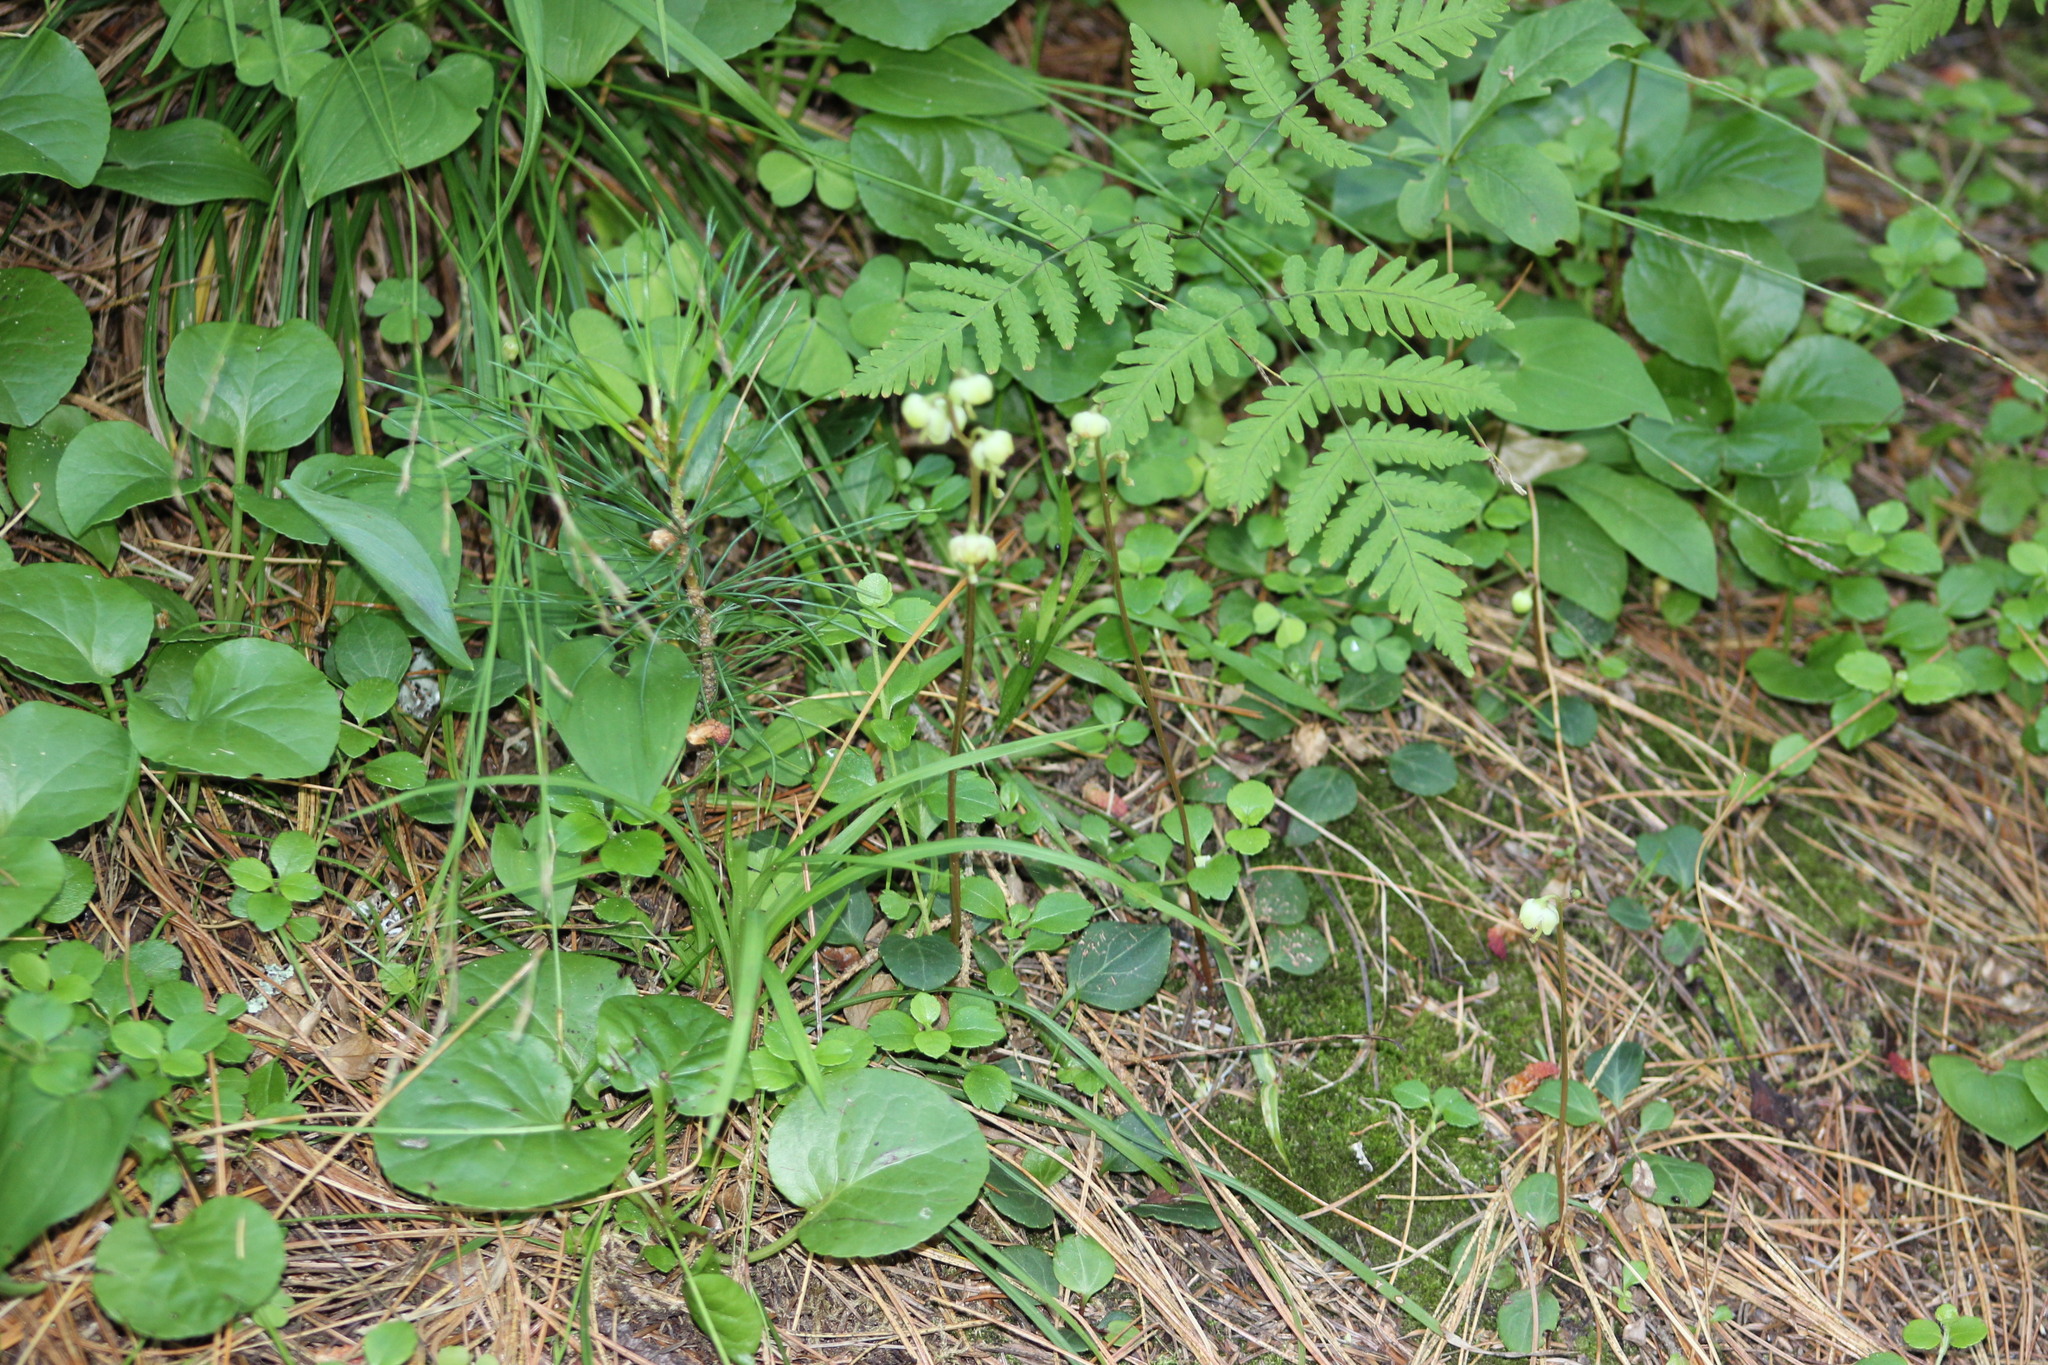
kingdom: Plantae
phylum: Tracheophyta
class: Magnoliopsida
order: Ericales
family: Ericaceae
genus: Pyrola
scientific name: Pyrola chlorantha
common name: Green wintergreen
